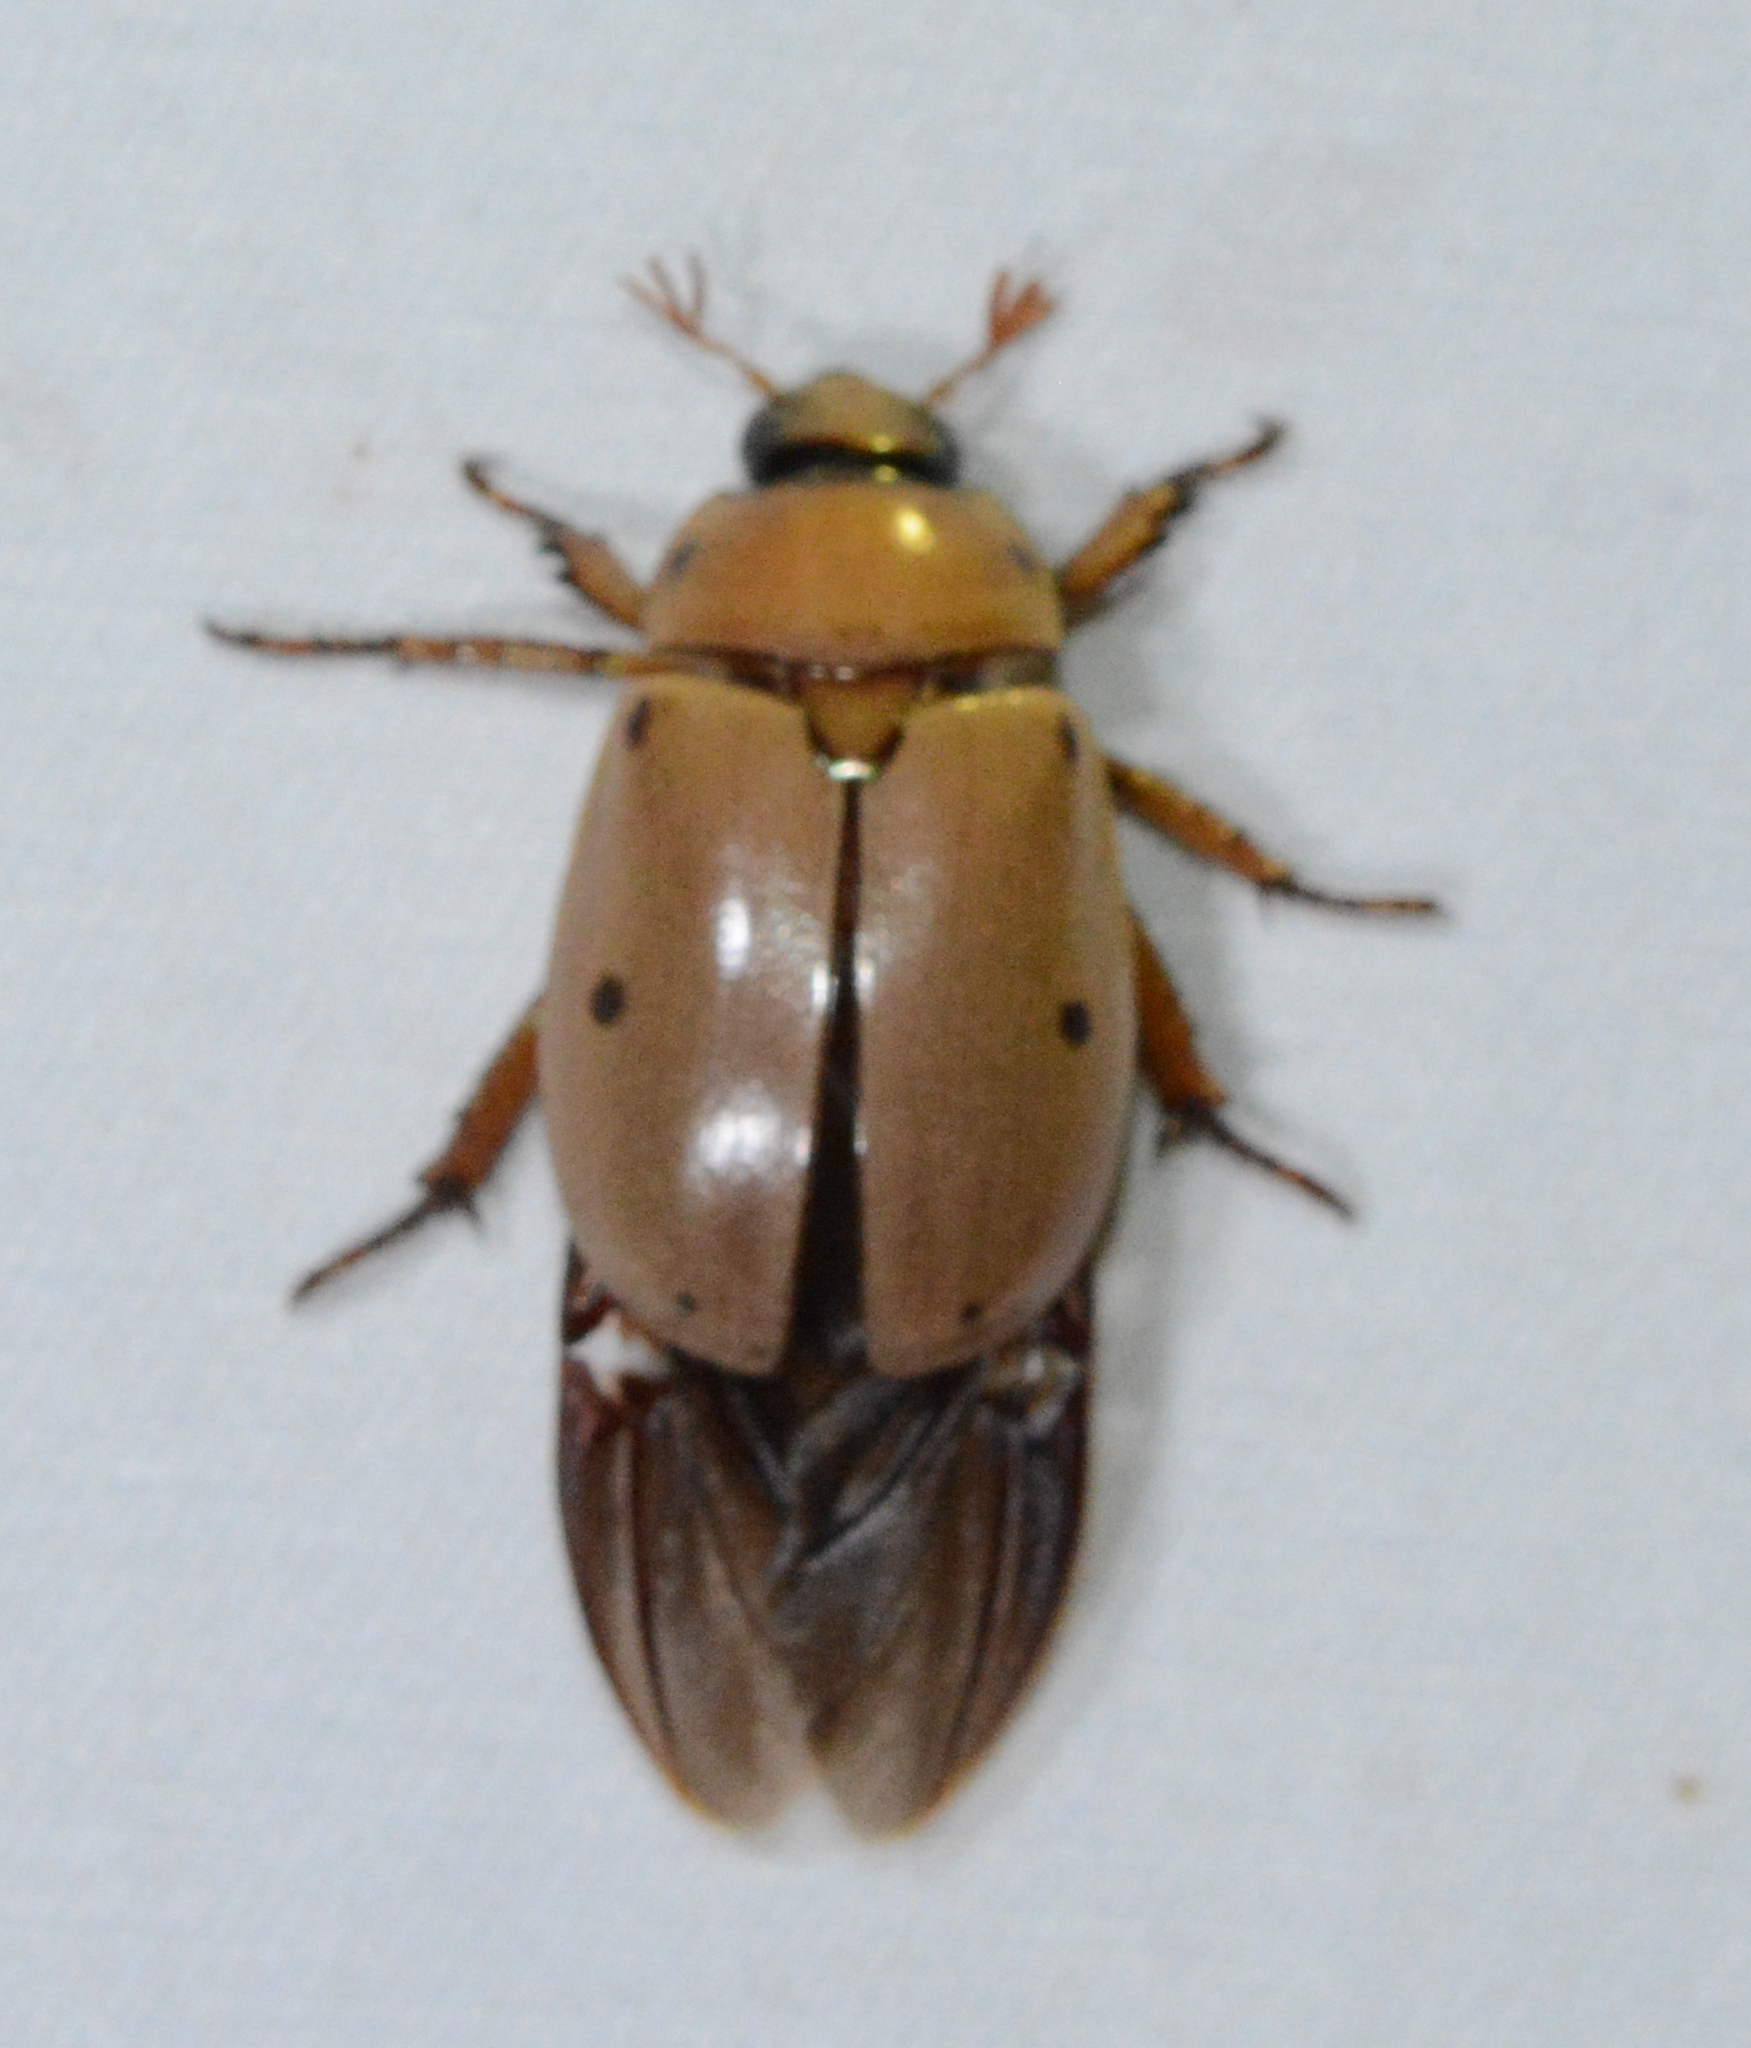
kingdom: Animalia
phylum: Arthropoda
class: Insecta
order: Coleoptera
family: Scarabaeidae
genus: Pelidnota
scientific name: Pelidnota punctata
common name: Grapevine beetle
